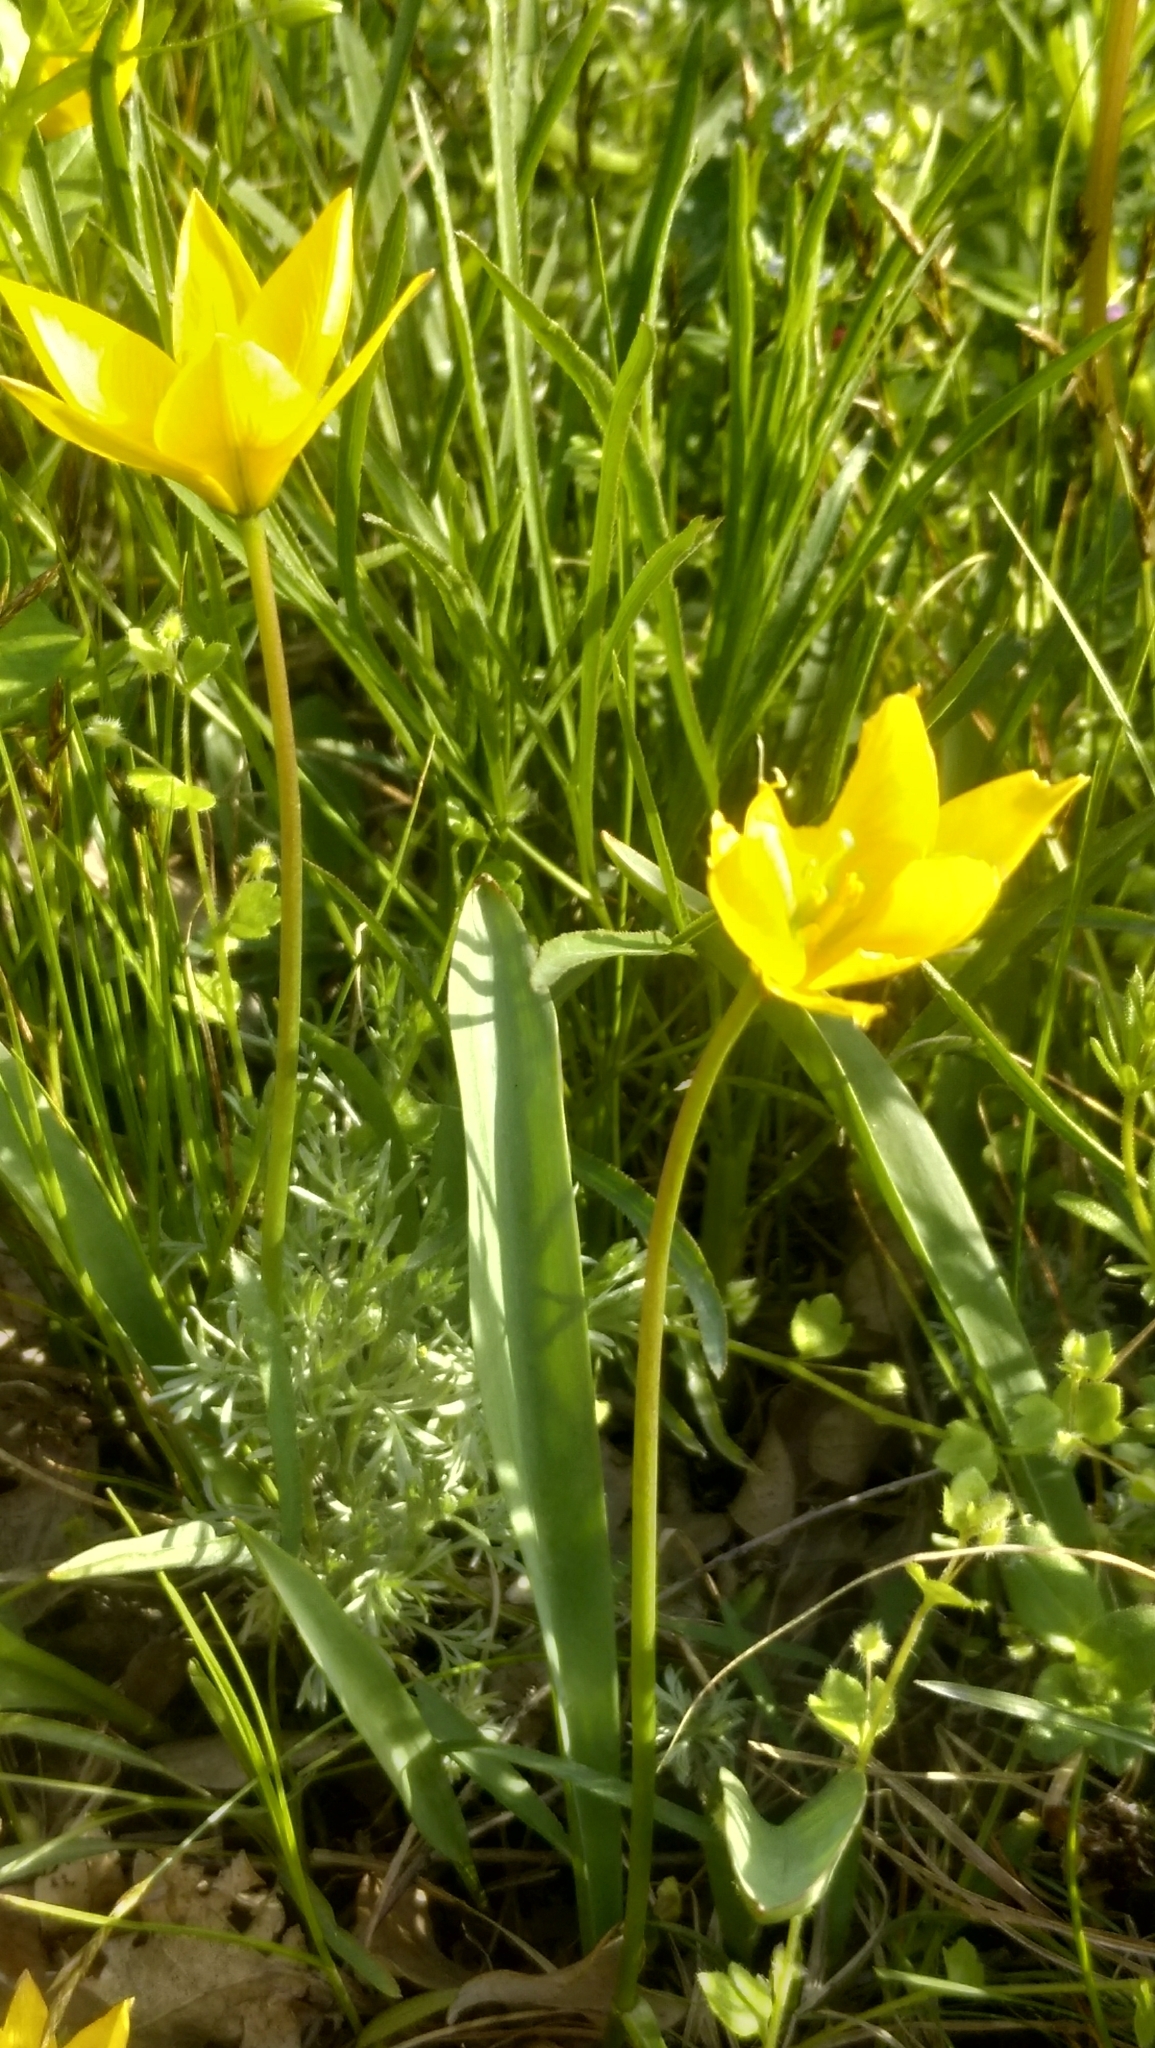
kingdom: Plantae
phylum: Tracheophyta
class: Liliopsida
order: Liliales
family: Liliaceae
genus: Tulipa
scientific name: Tulipa sylvestris
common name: Wild tulip
